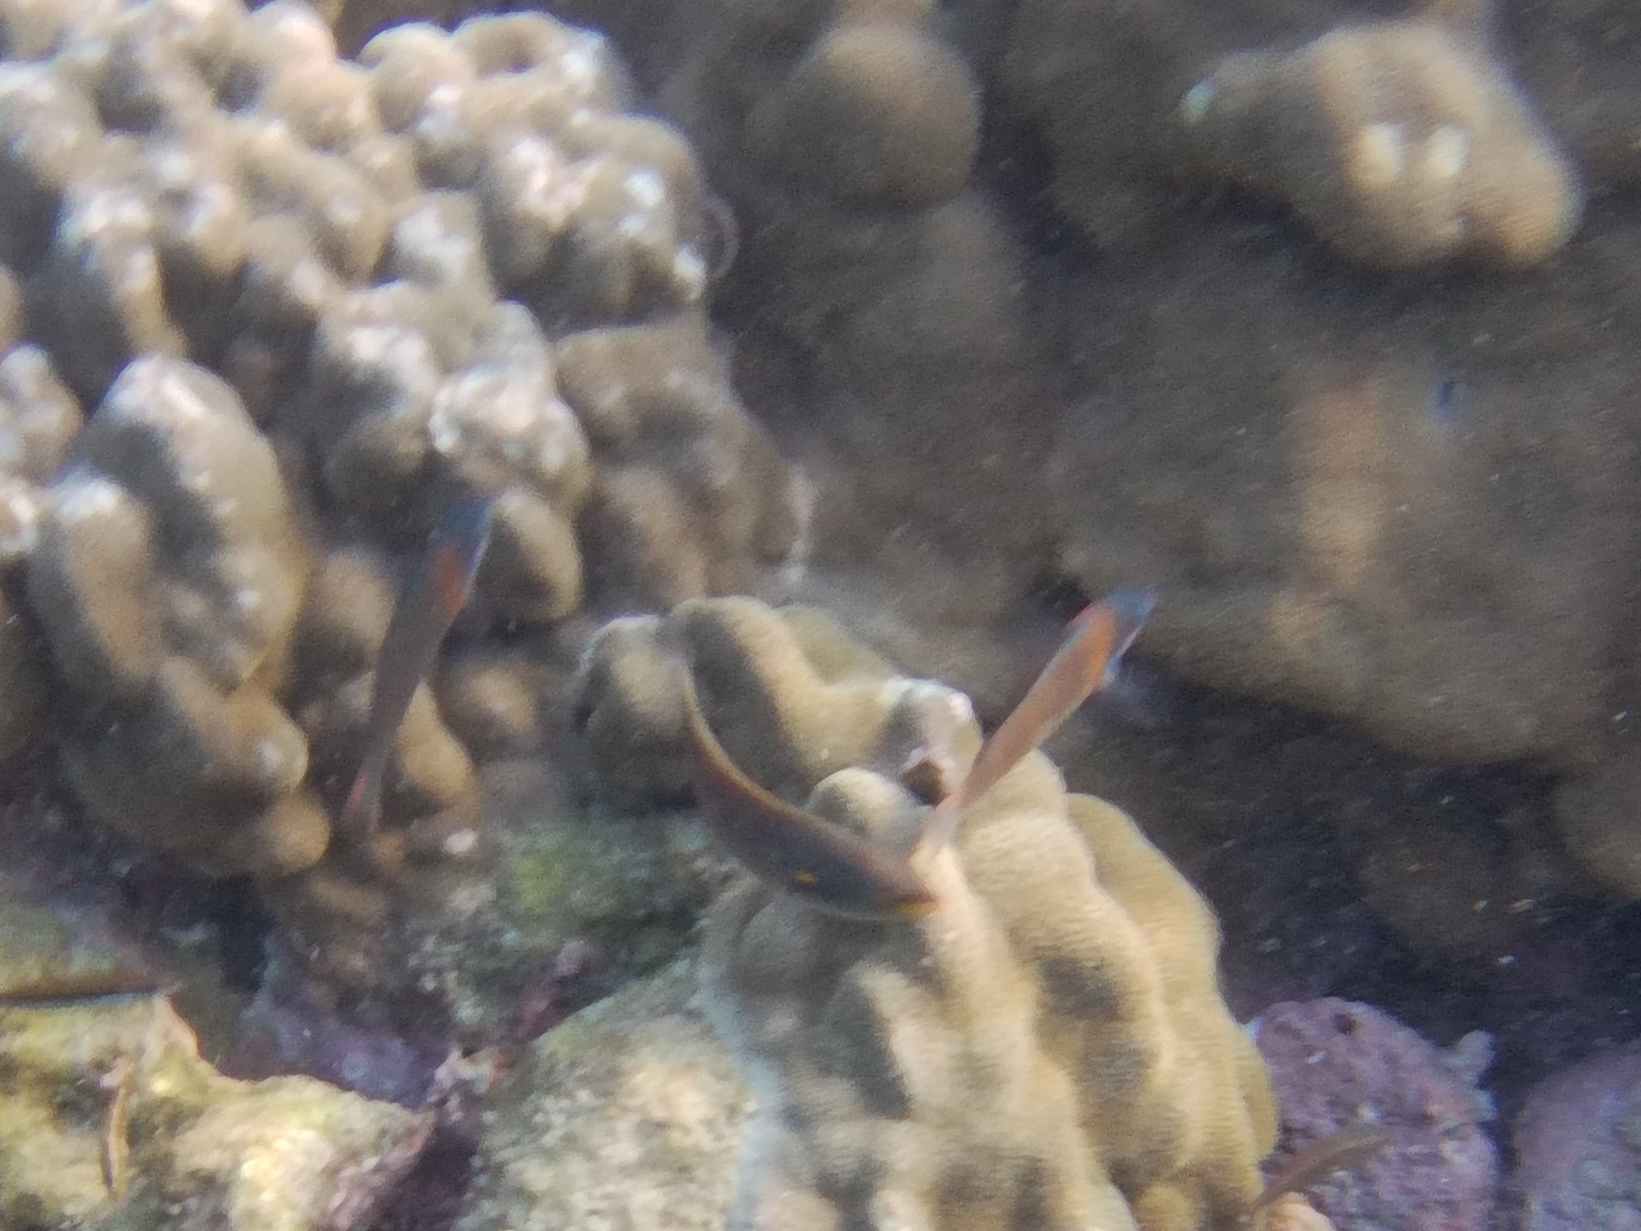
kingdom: Animalia
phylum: Chordata
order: Perciformes
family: Labridae
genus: Thalassoma
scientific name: Thalassoma duperrey
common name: Saddle wrasse
